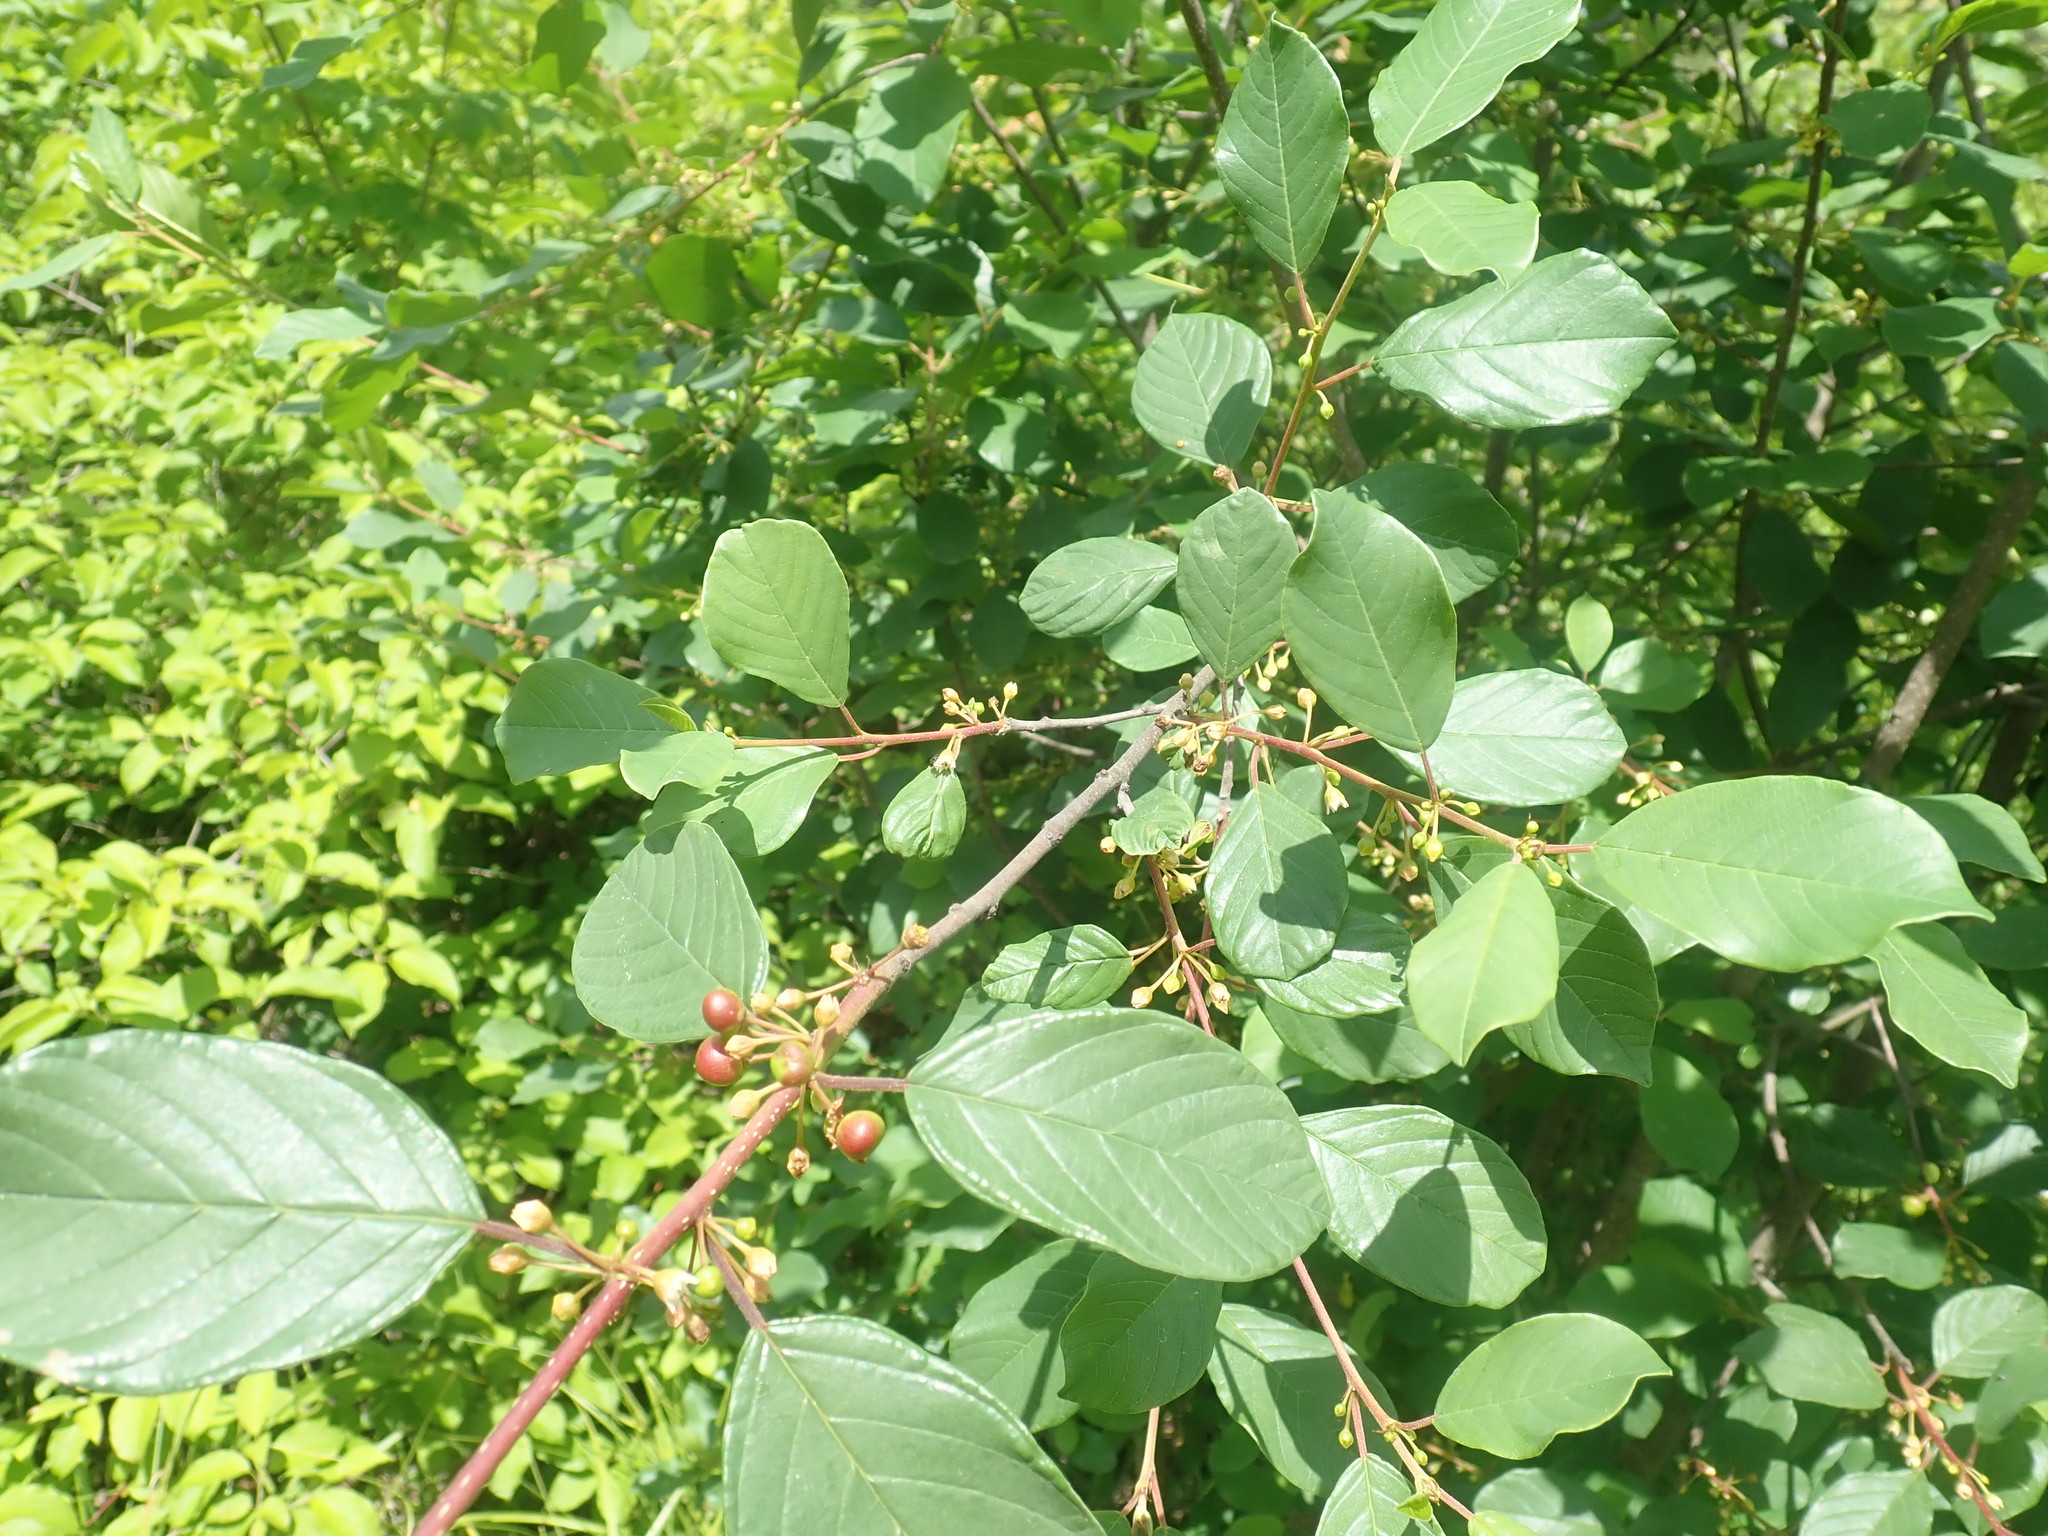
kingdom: Plantae
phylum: Tracheophyta
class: Magnoliopsida
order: Rosales
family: Rhamnaceae
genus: Frangula
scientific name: Frangula alnus
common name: Alder buckthorn
